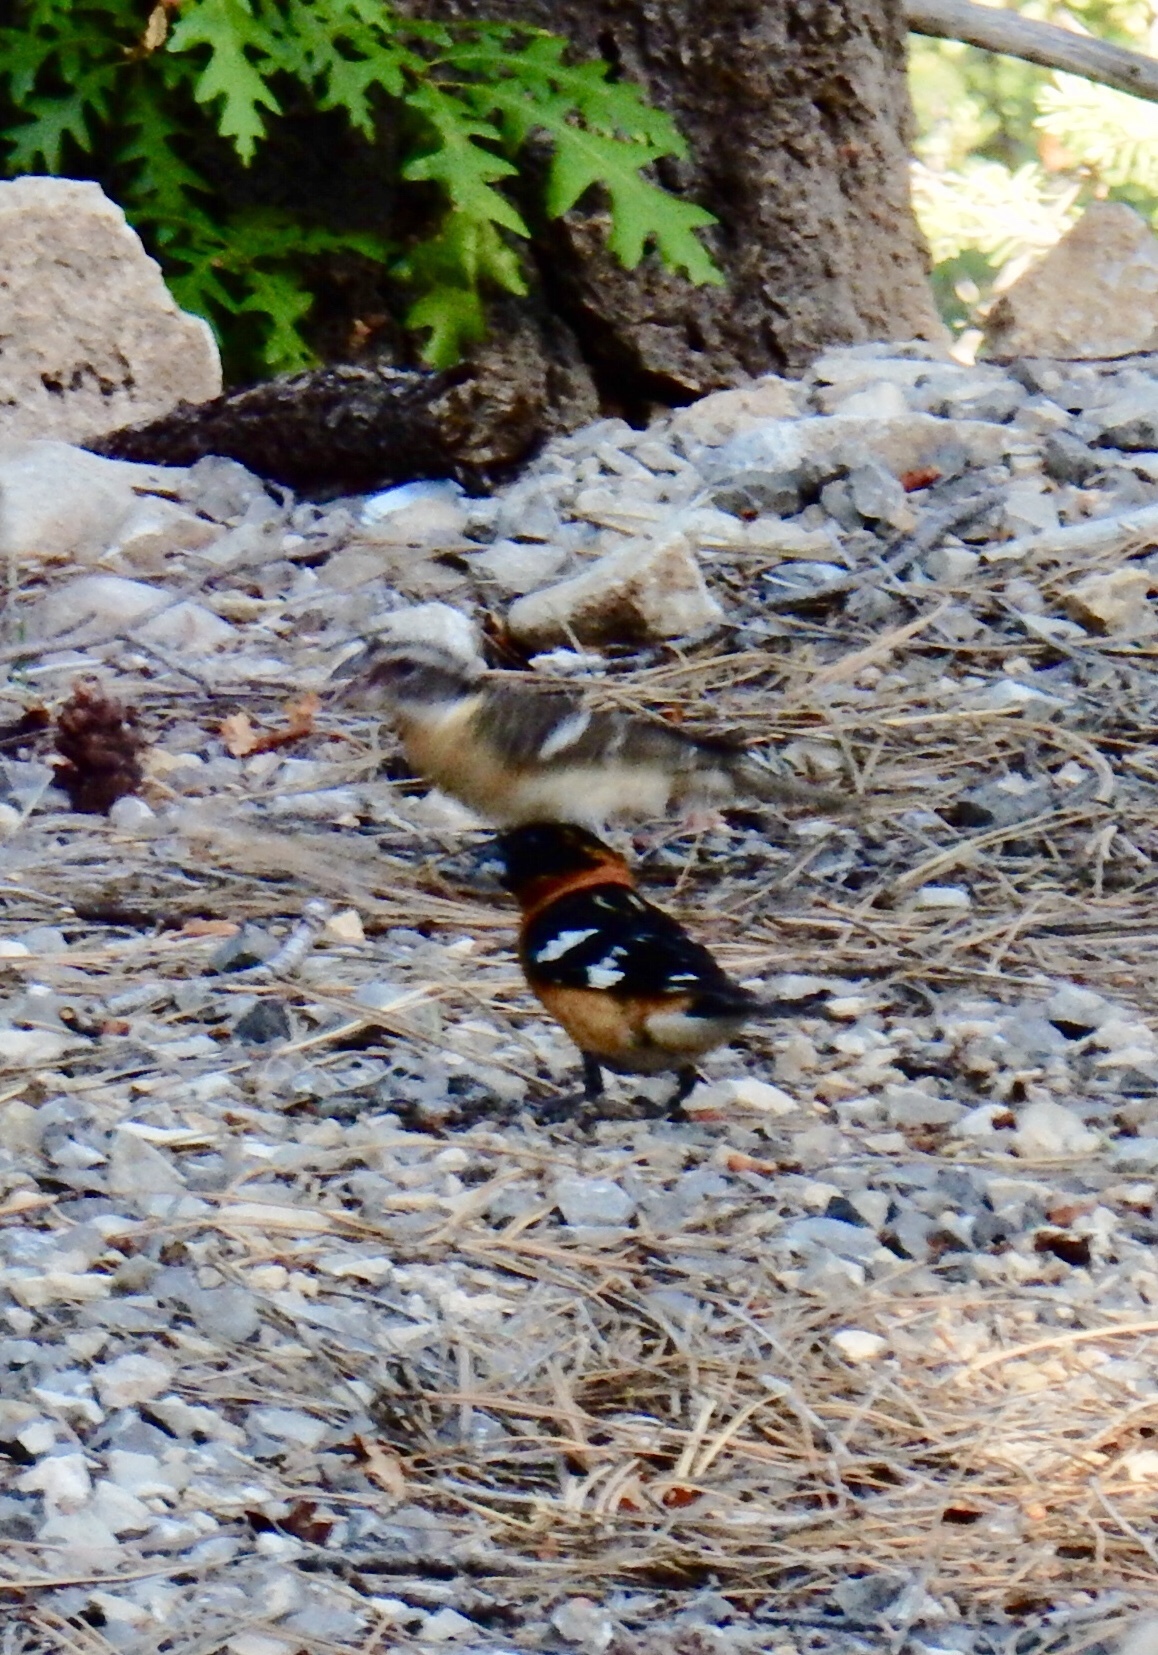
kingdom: Animalia
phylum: Chordata
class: Aves
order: Passeriformes
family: Cardinalidae
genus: Pheucticus
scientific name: Pheucticus melanocephalus
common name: Black-headed grosbeak
